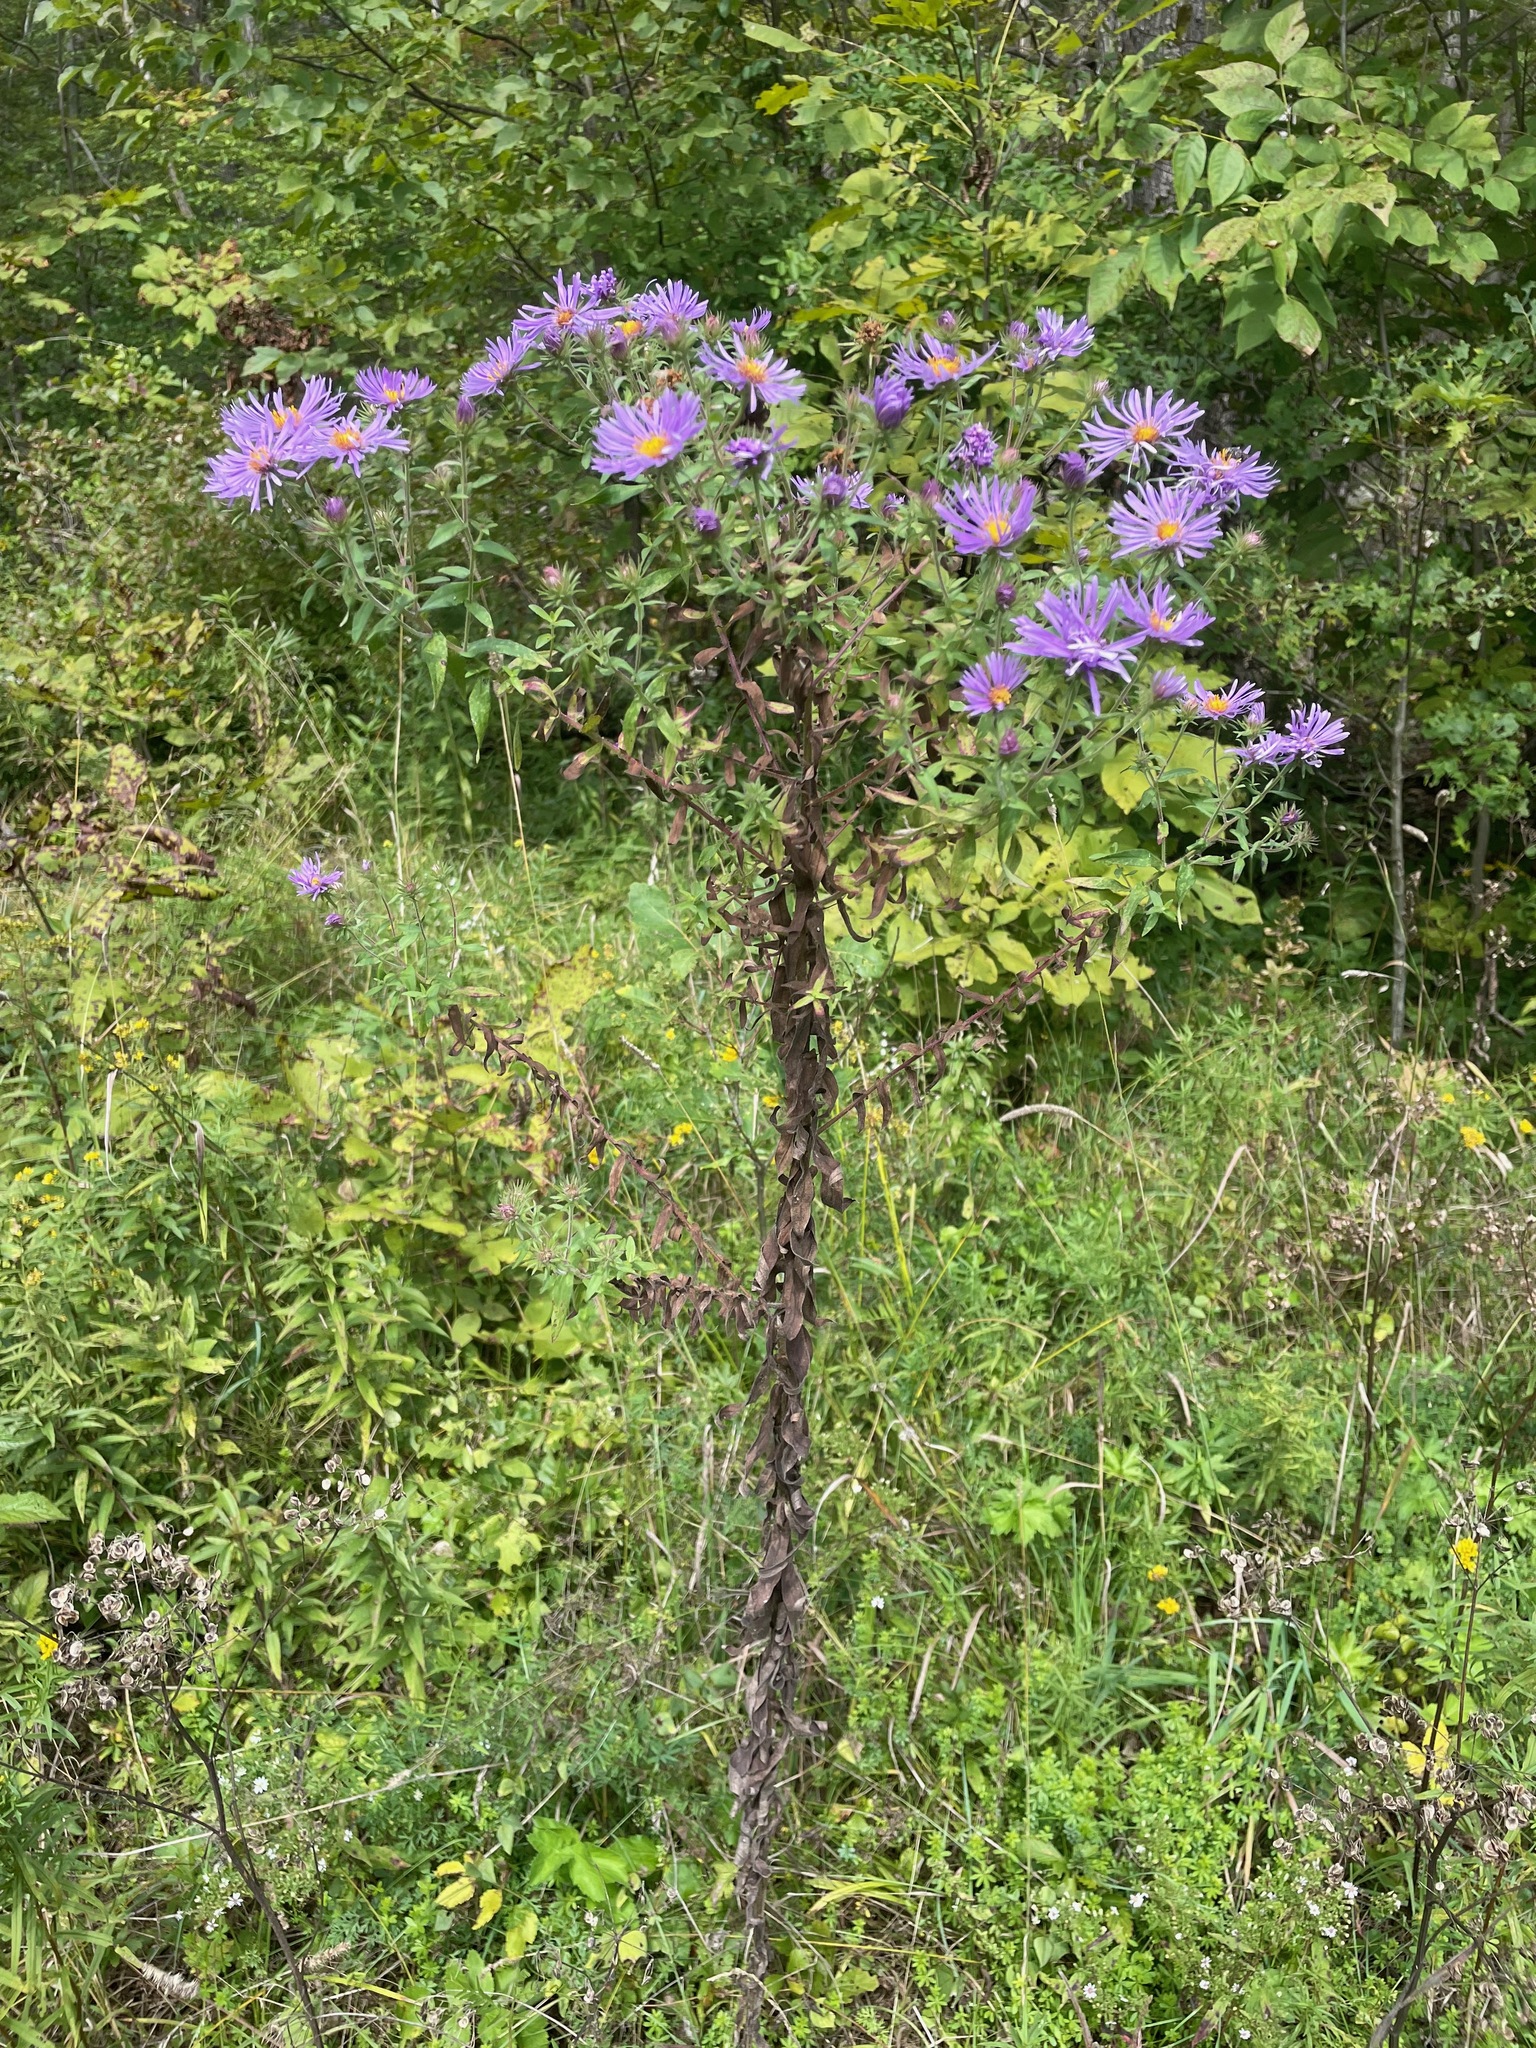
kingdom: Plantae
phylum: Tracheophyta
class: Magnoliopsida
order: Asterales
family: Asteraceae
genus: Symphyotrichum
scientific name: Symphyotrichum novae-angliae
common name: Michaelmas daisy
